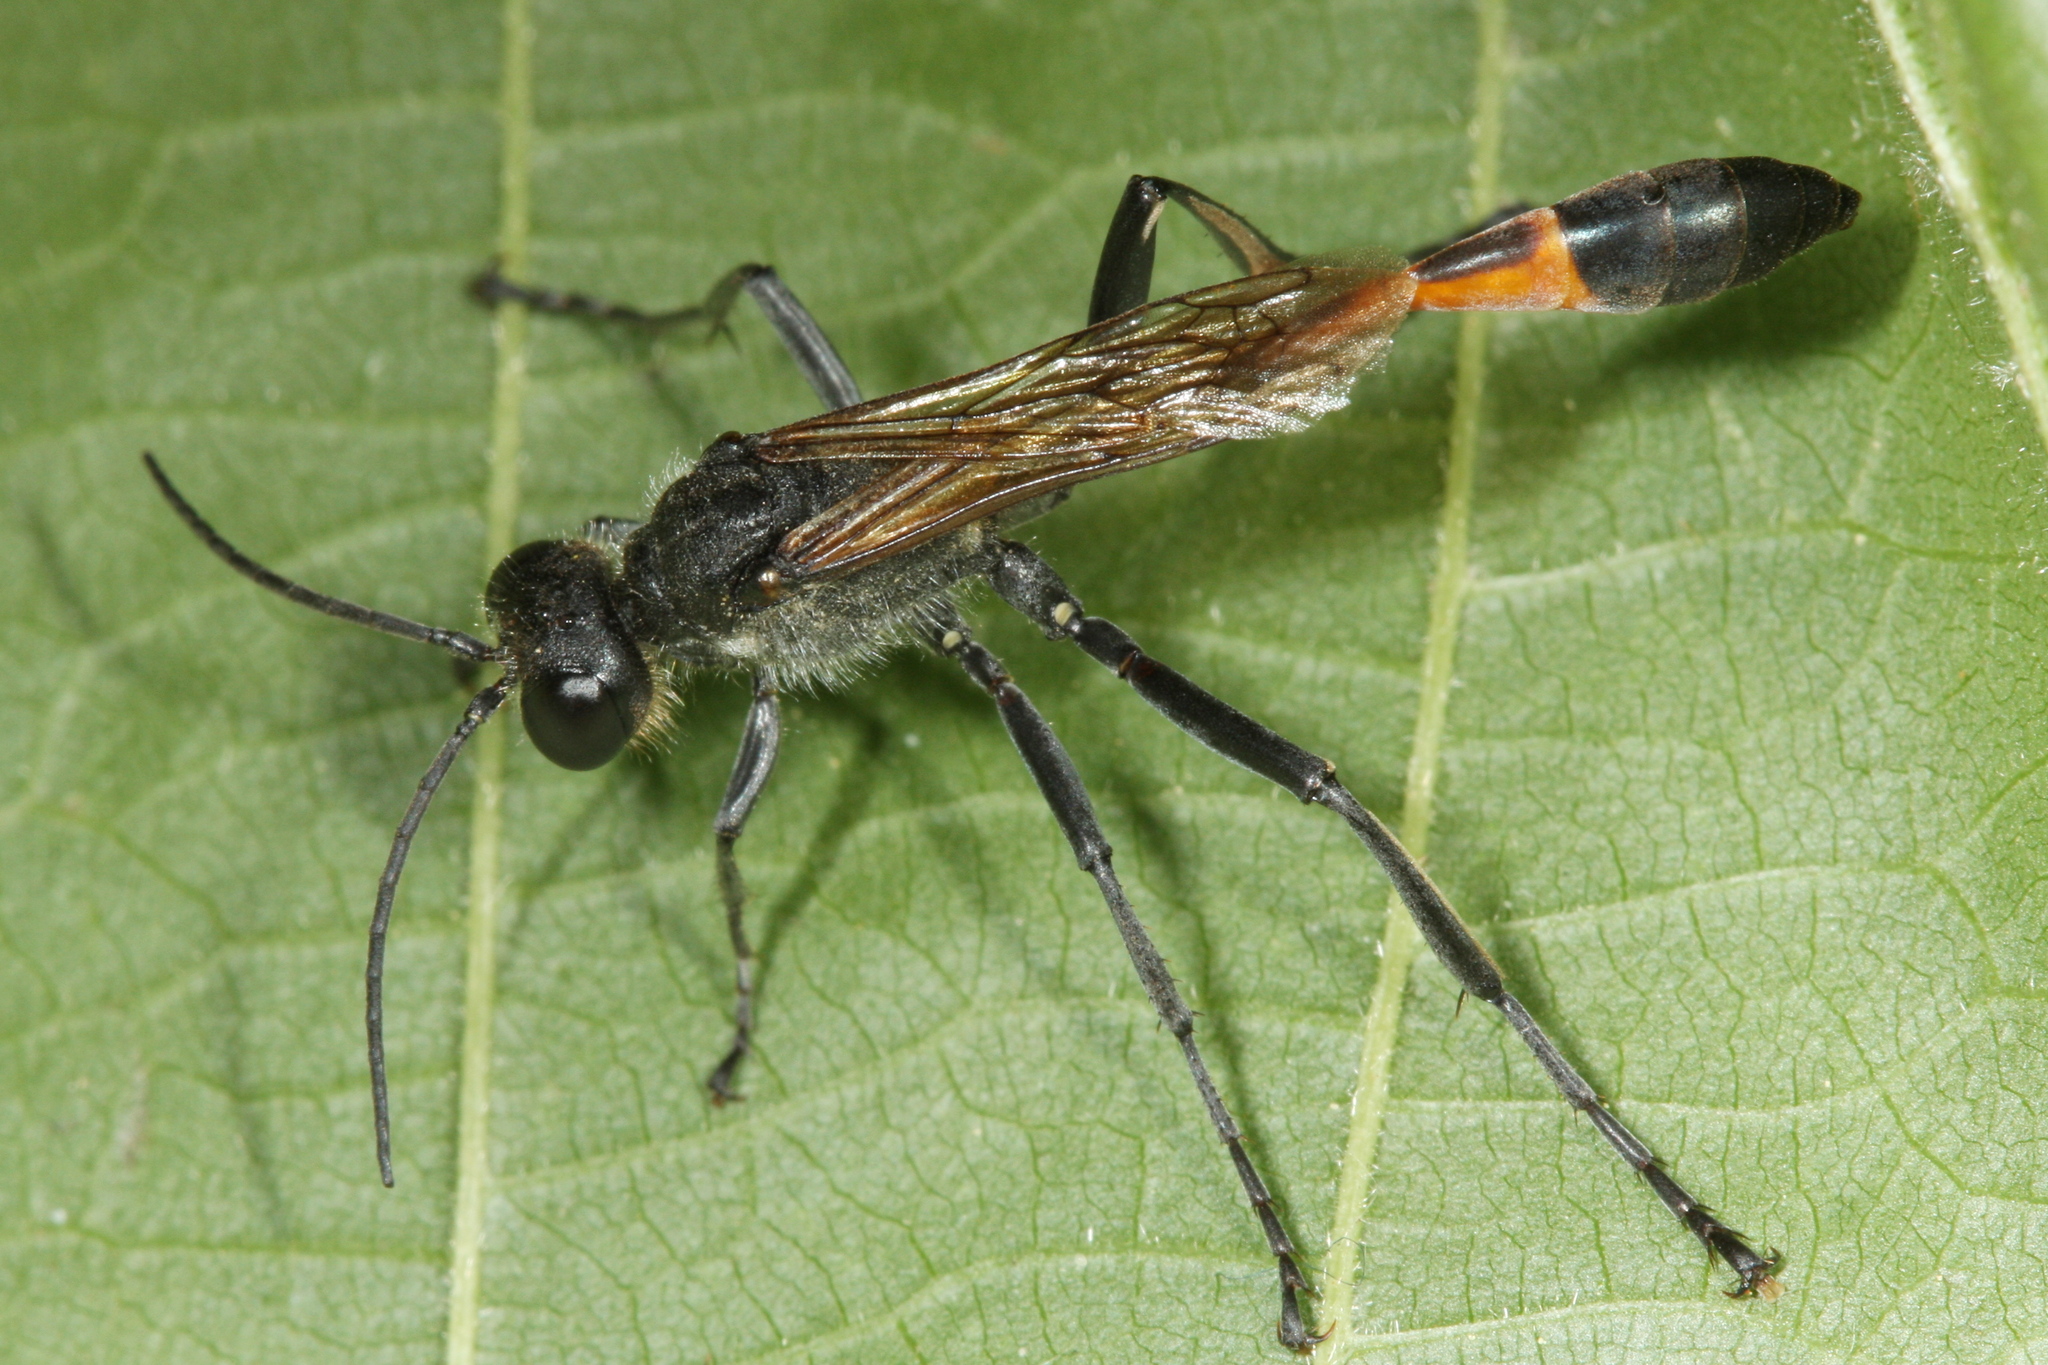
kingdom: Animalia
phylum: Arthropoda
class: Insecta
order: Hymenoptera
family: Sphecidae
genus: Ammophila
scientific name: Ammophila sabulosa
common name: Red banded sand wasp
